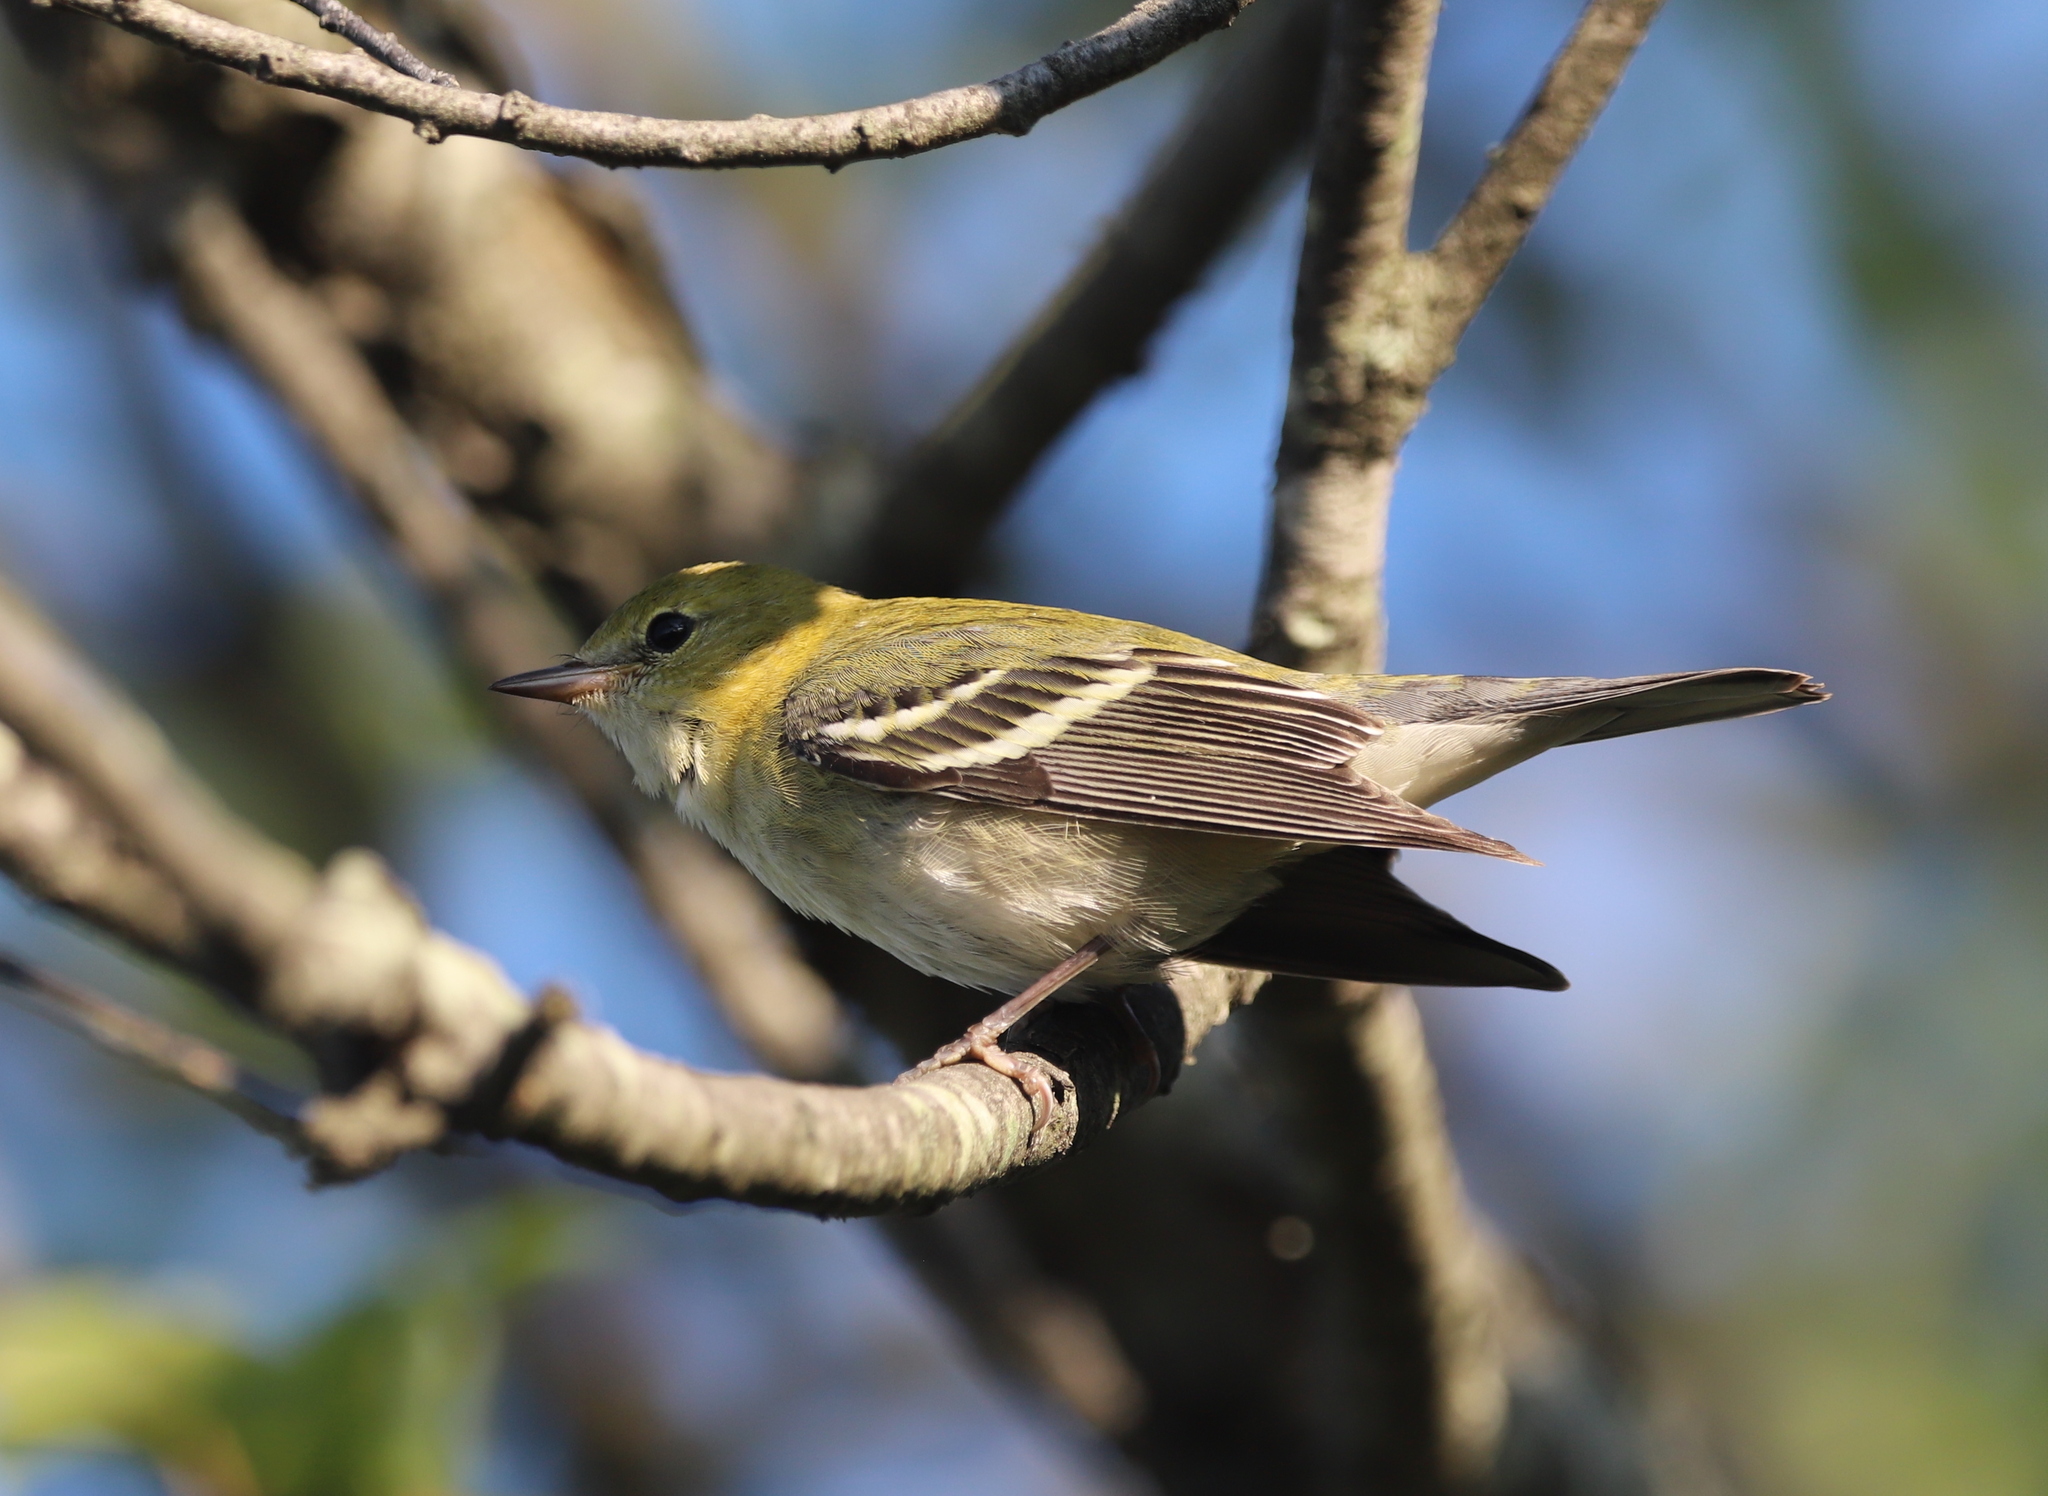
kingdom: Animalia
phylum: Chordata
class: Aves
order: Passeriformes
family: Parulidae
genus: Setophaga
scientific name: Setophaga castanea
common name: Bay-breasted warbler
